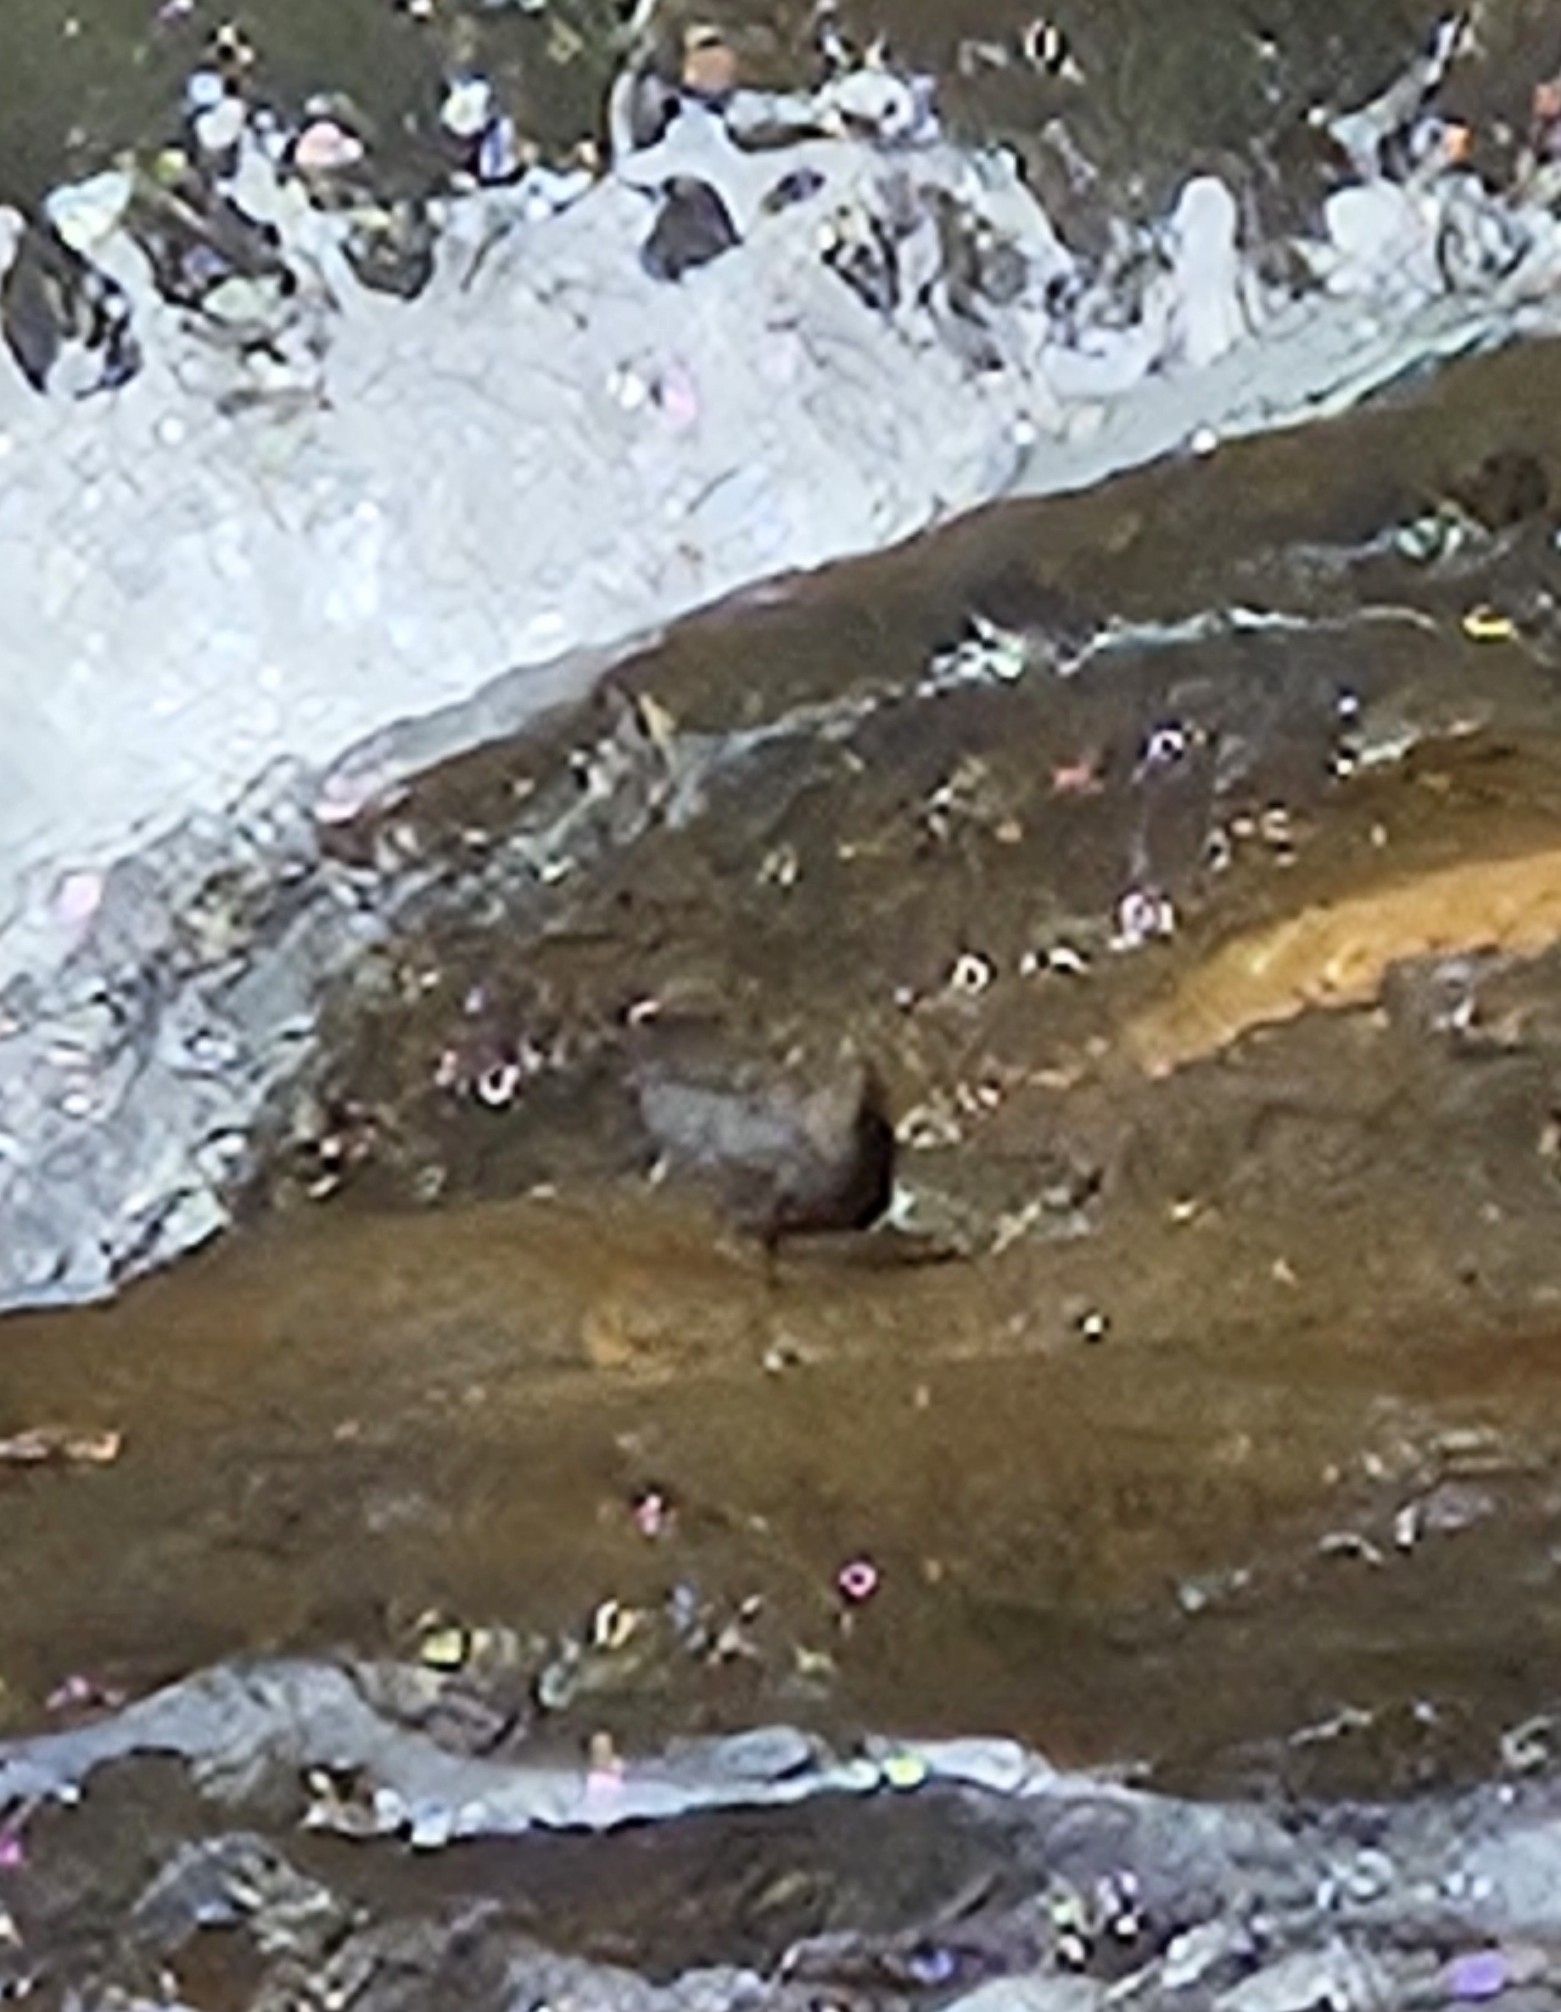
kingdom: Animalia
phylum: Chordata
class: Aves
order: Passeriformes
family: Cinclidae
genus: Cinclus
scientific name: Cinclus mexicanus
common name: American dipper
